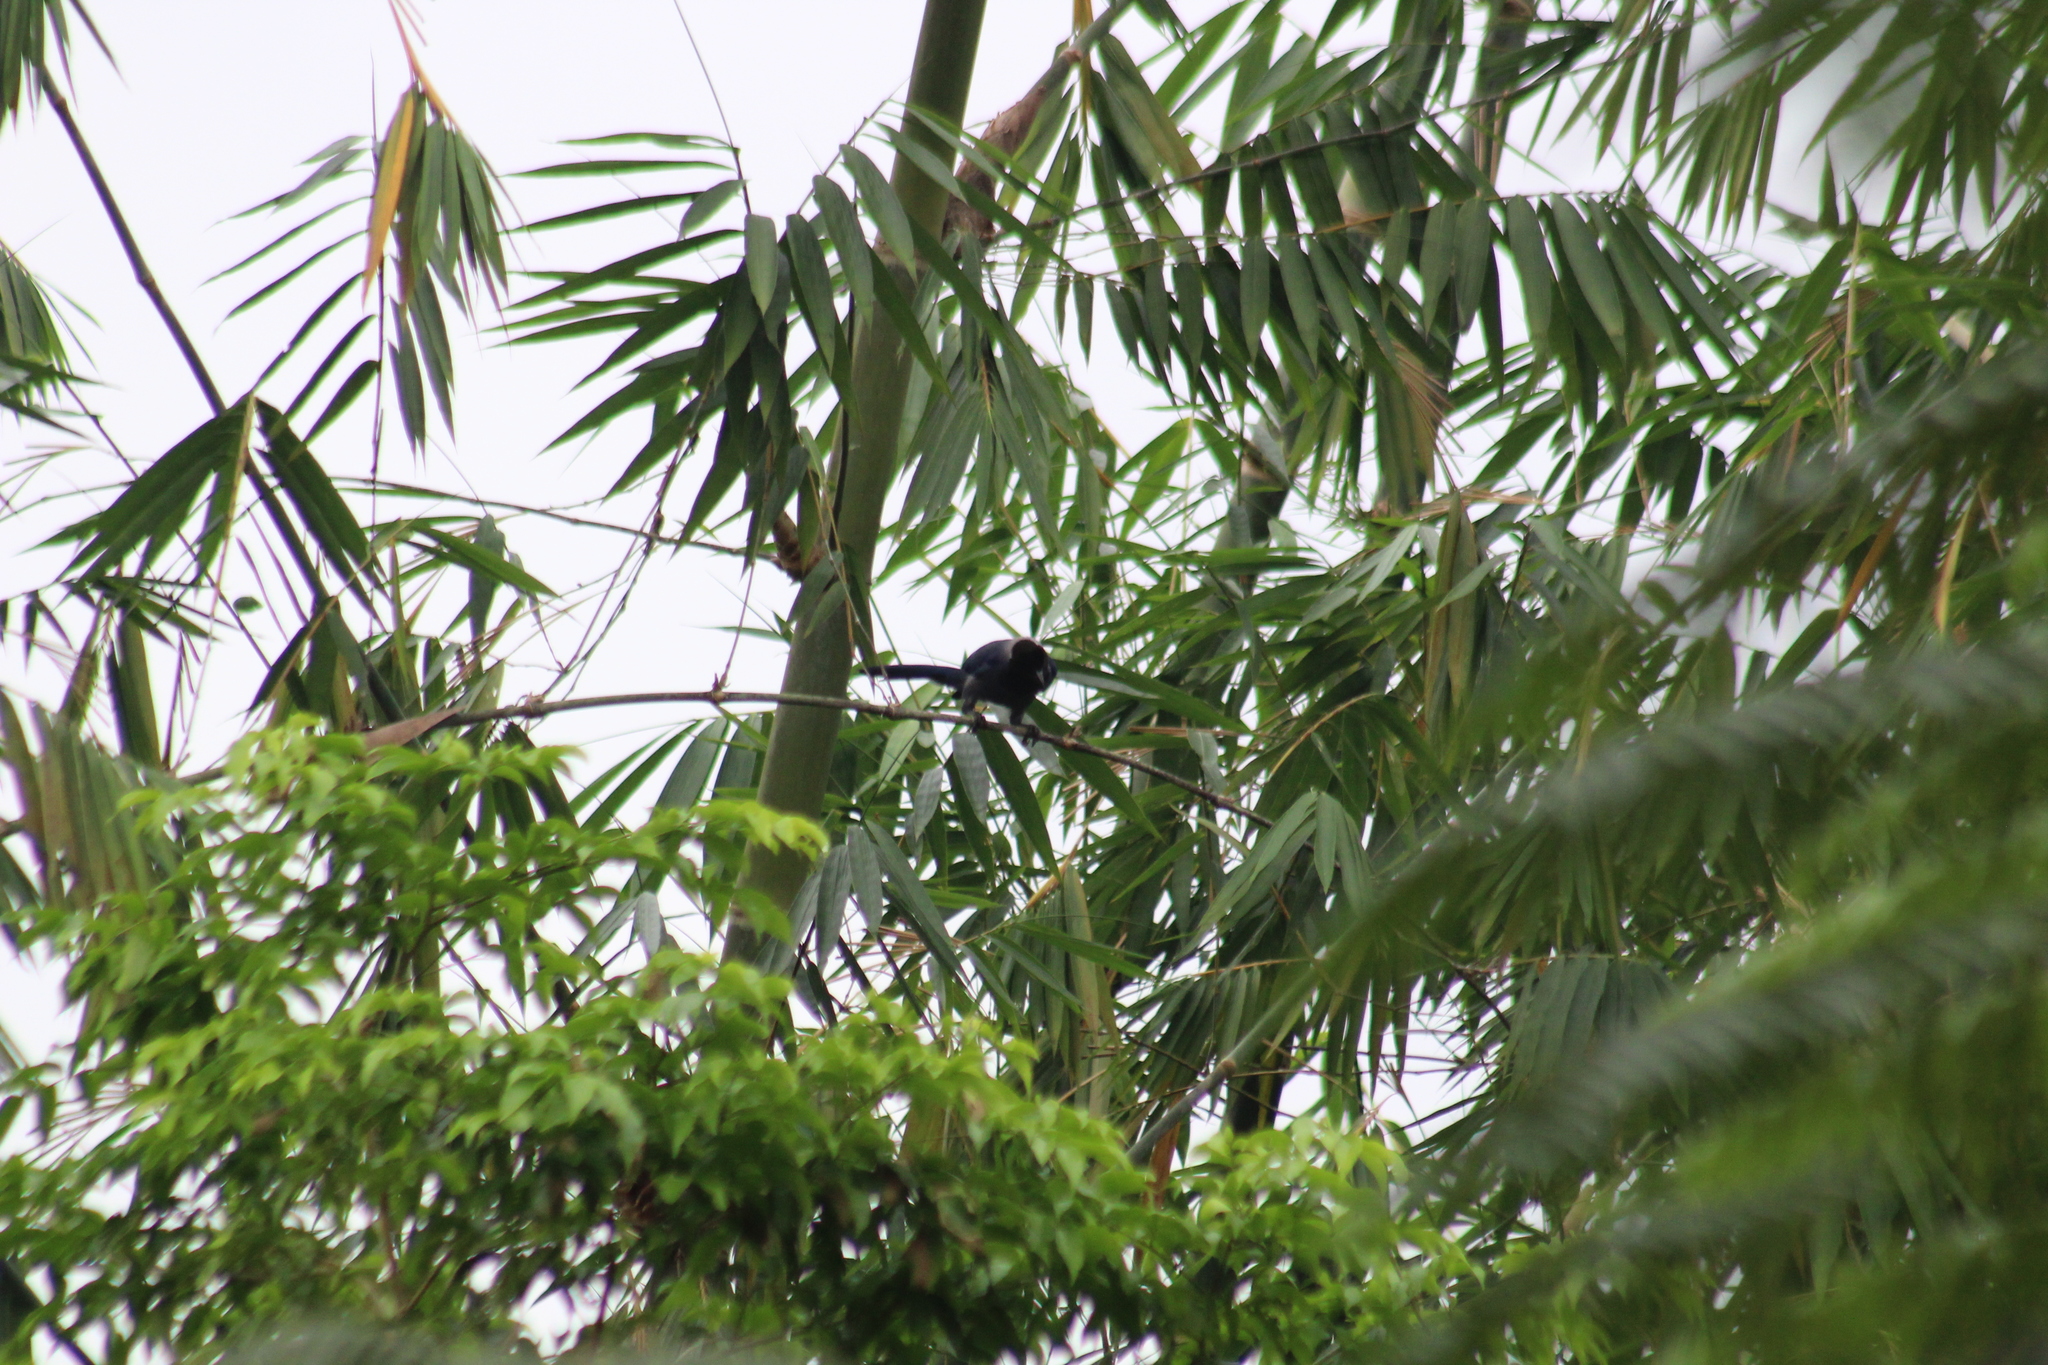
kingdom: Animalia
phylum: Chordata
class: Aves
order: Passeriformes
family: Corvidae
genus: Cyanocorax
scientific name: Cyanocorax violaceus
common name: Violaceous jay
